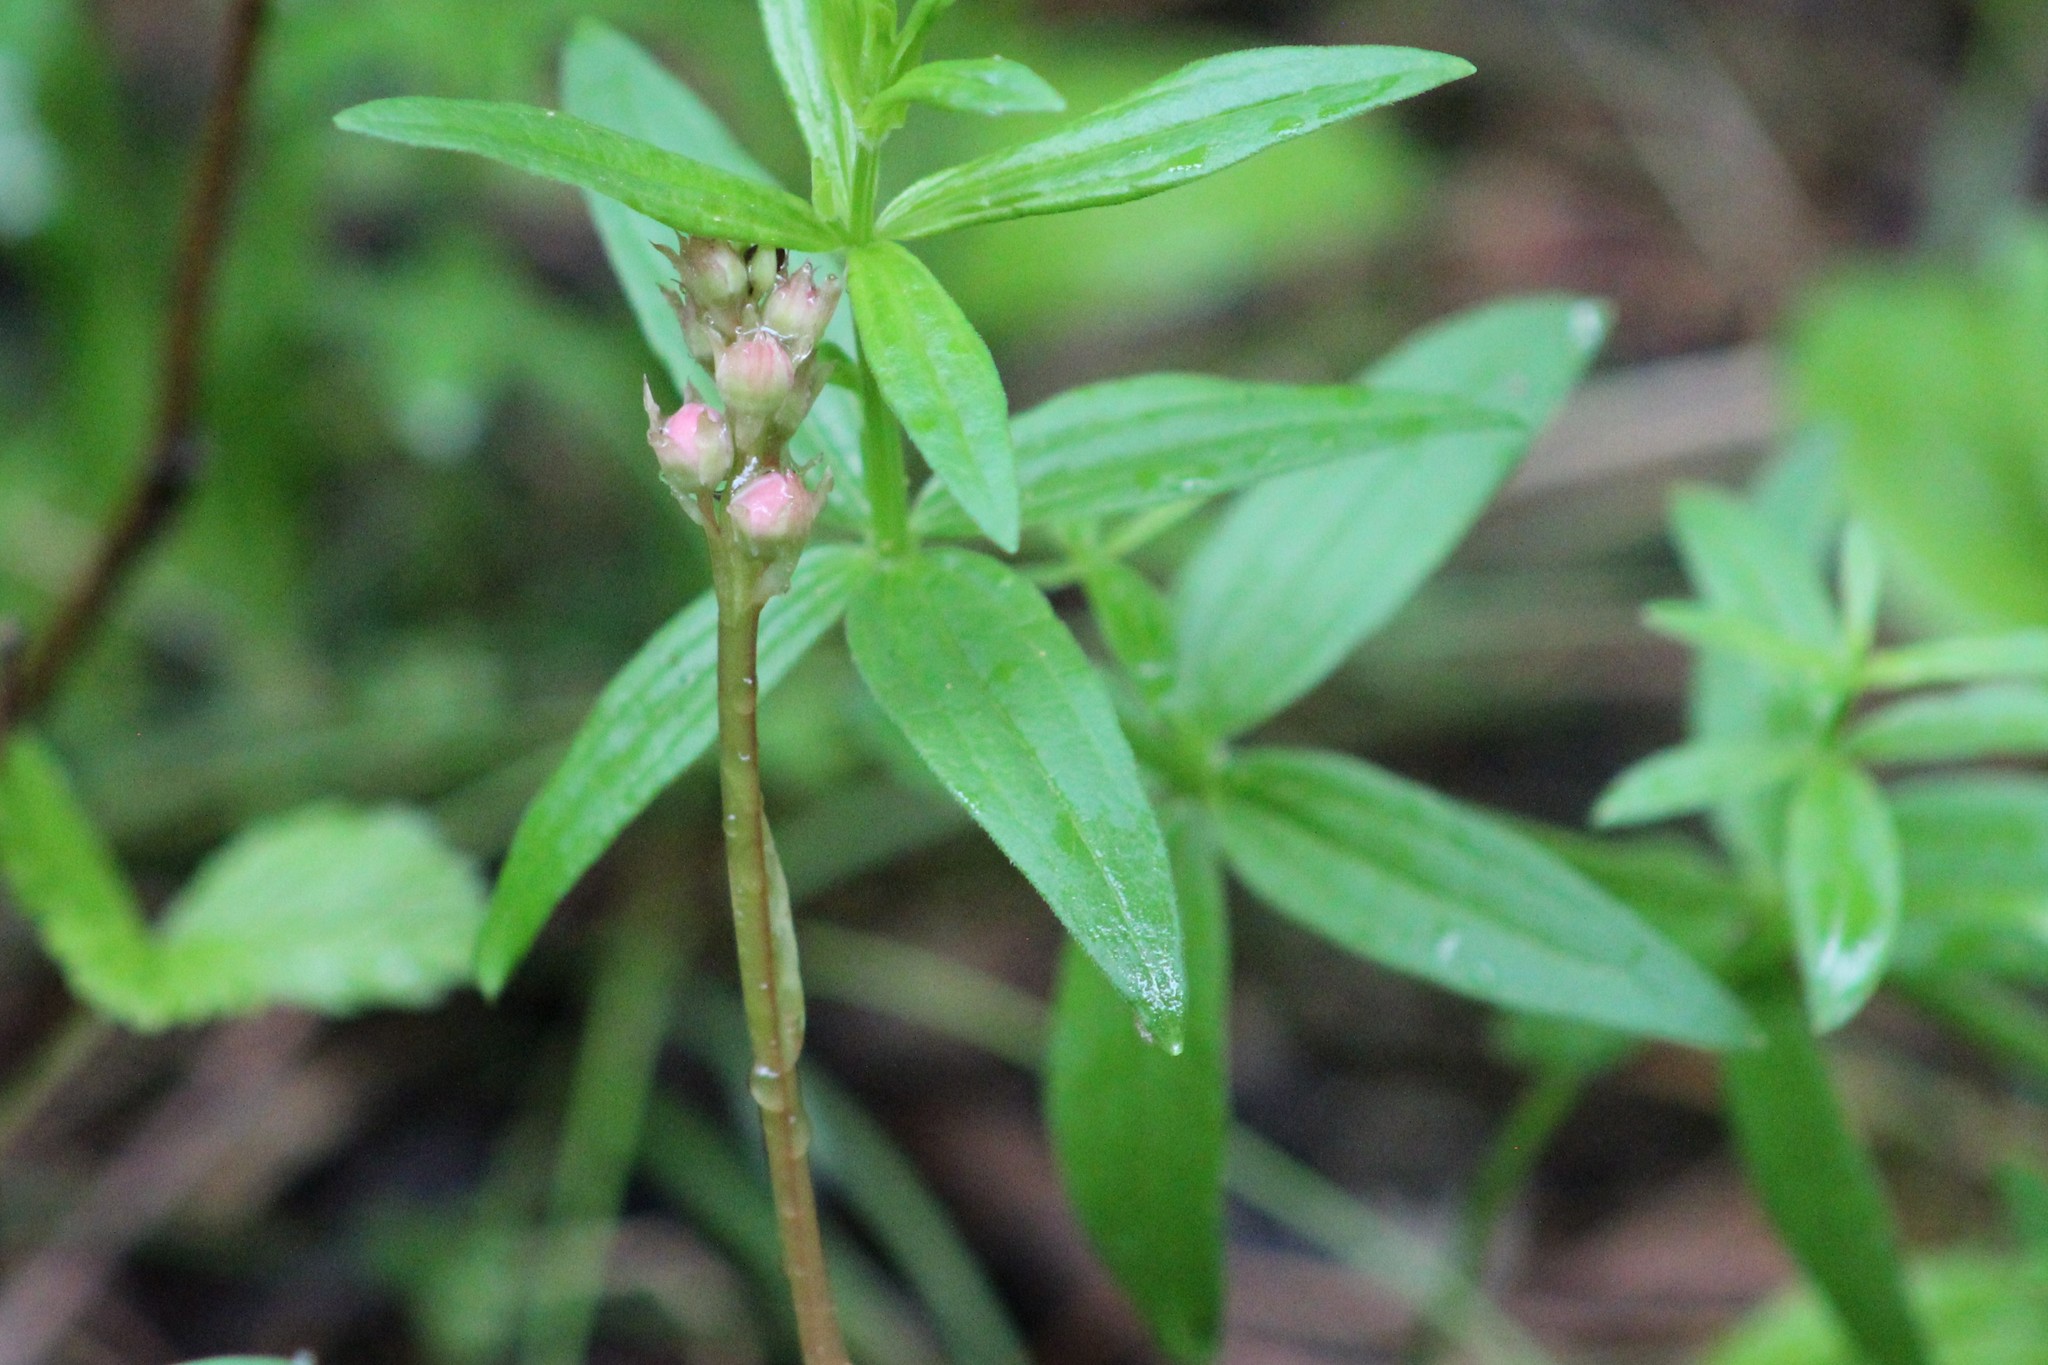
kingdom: Plantae
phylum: Tracheophyta
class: Magnoliopsida
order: Ericales
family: Ericaceae
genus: Pyrola
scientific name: Pyrola asarifolia
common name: Bog wintergreen
